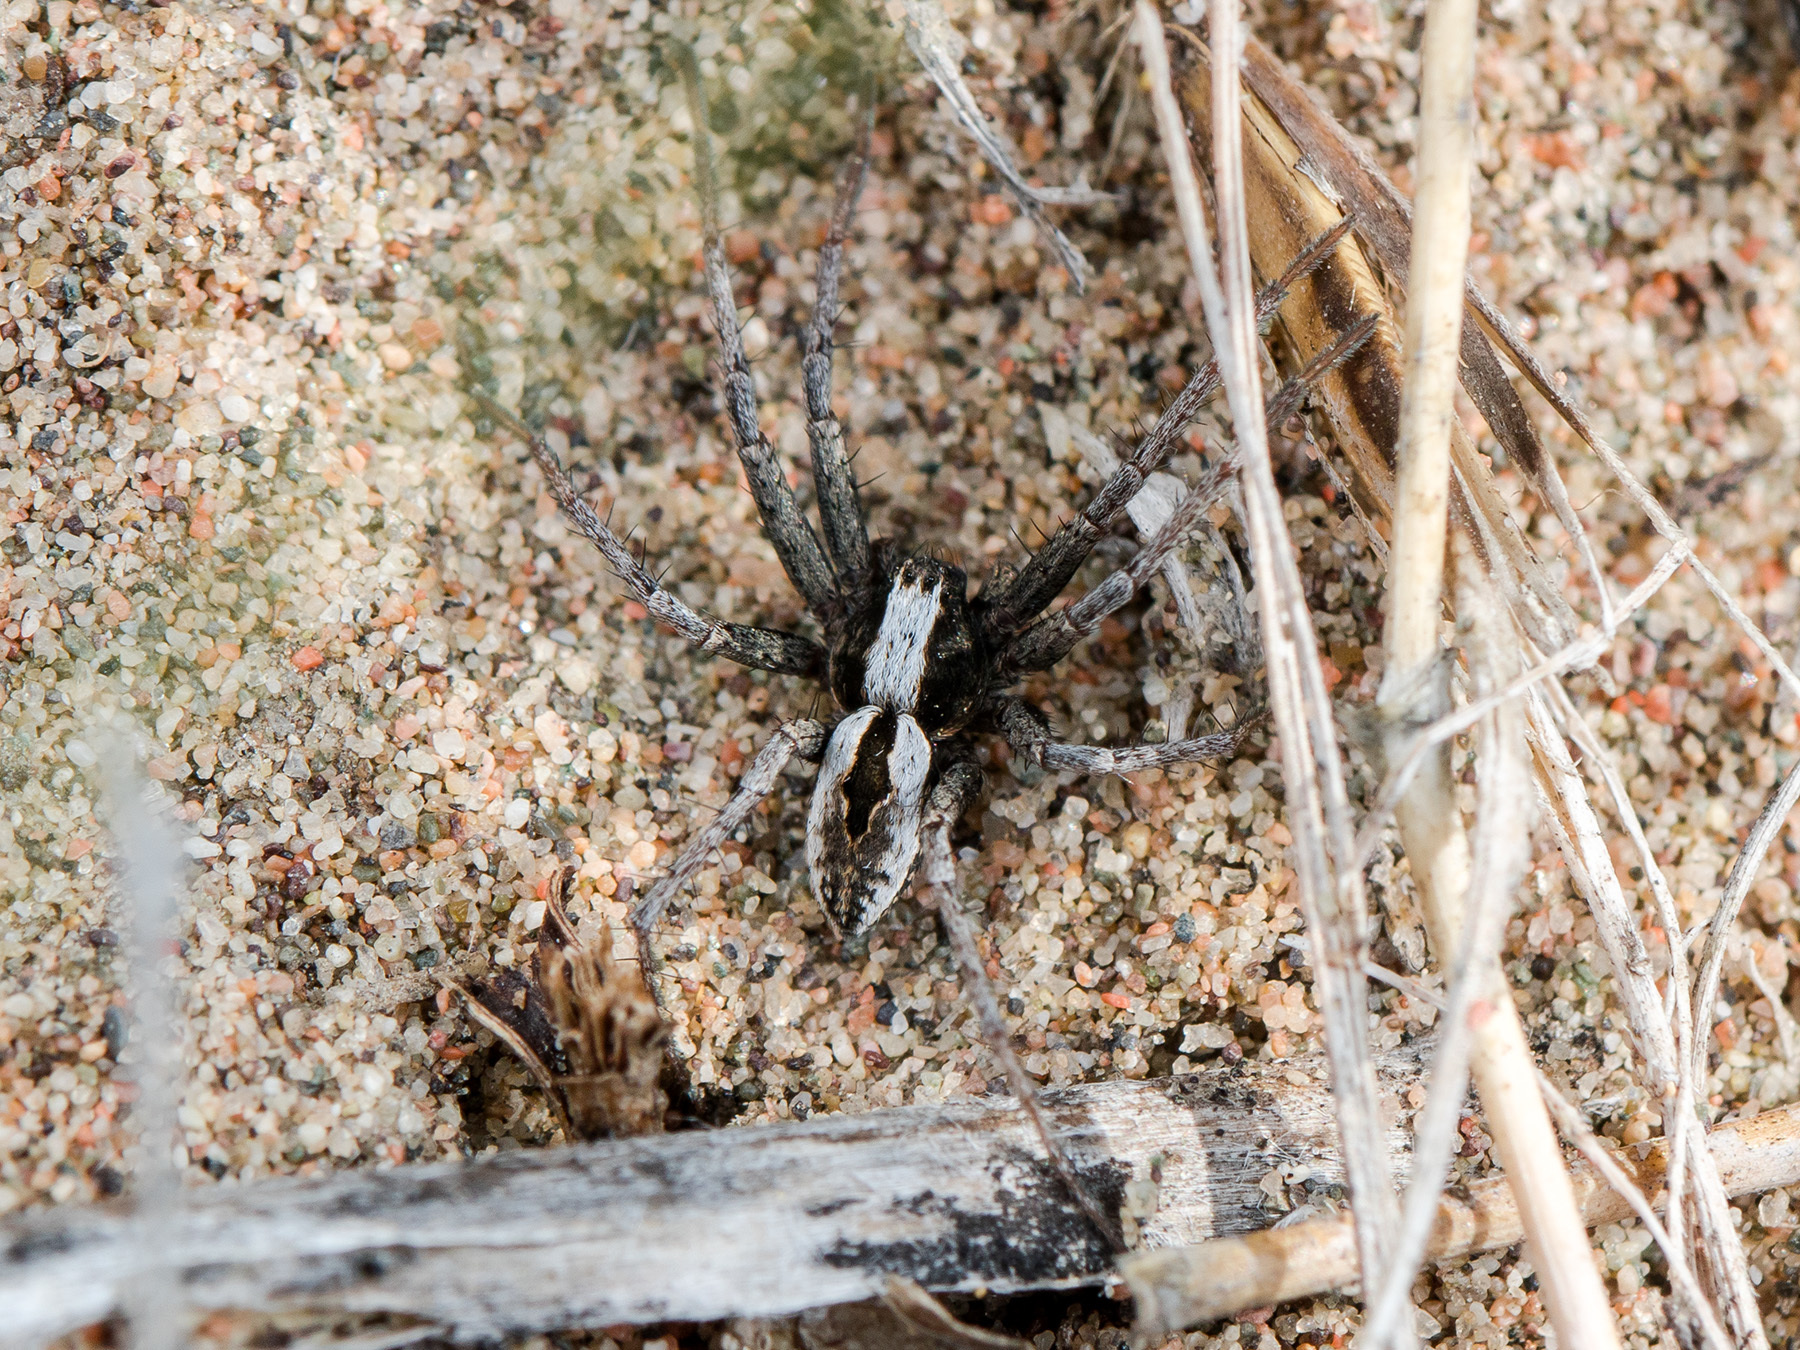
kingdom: Animalia
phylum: Arthropoda
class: Arachnida
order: Araneae
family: Philodromidae
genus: Thanatus
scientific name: Thanatus imbecillus
